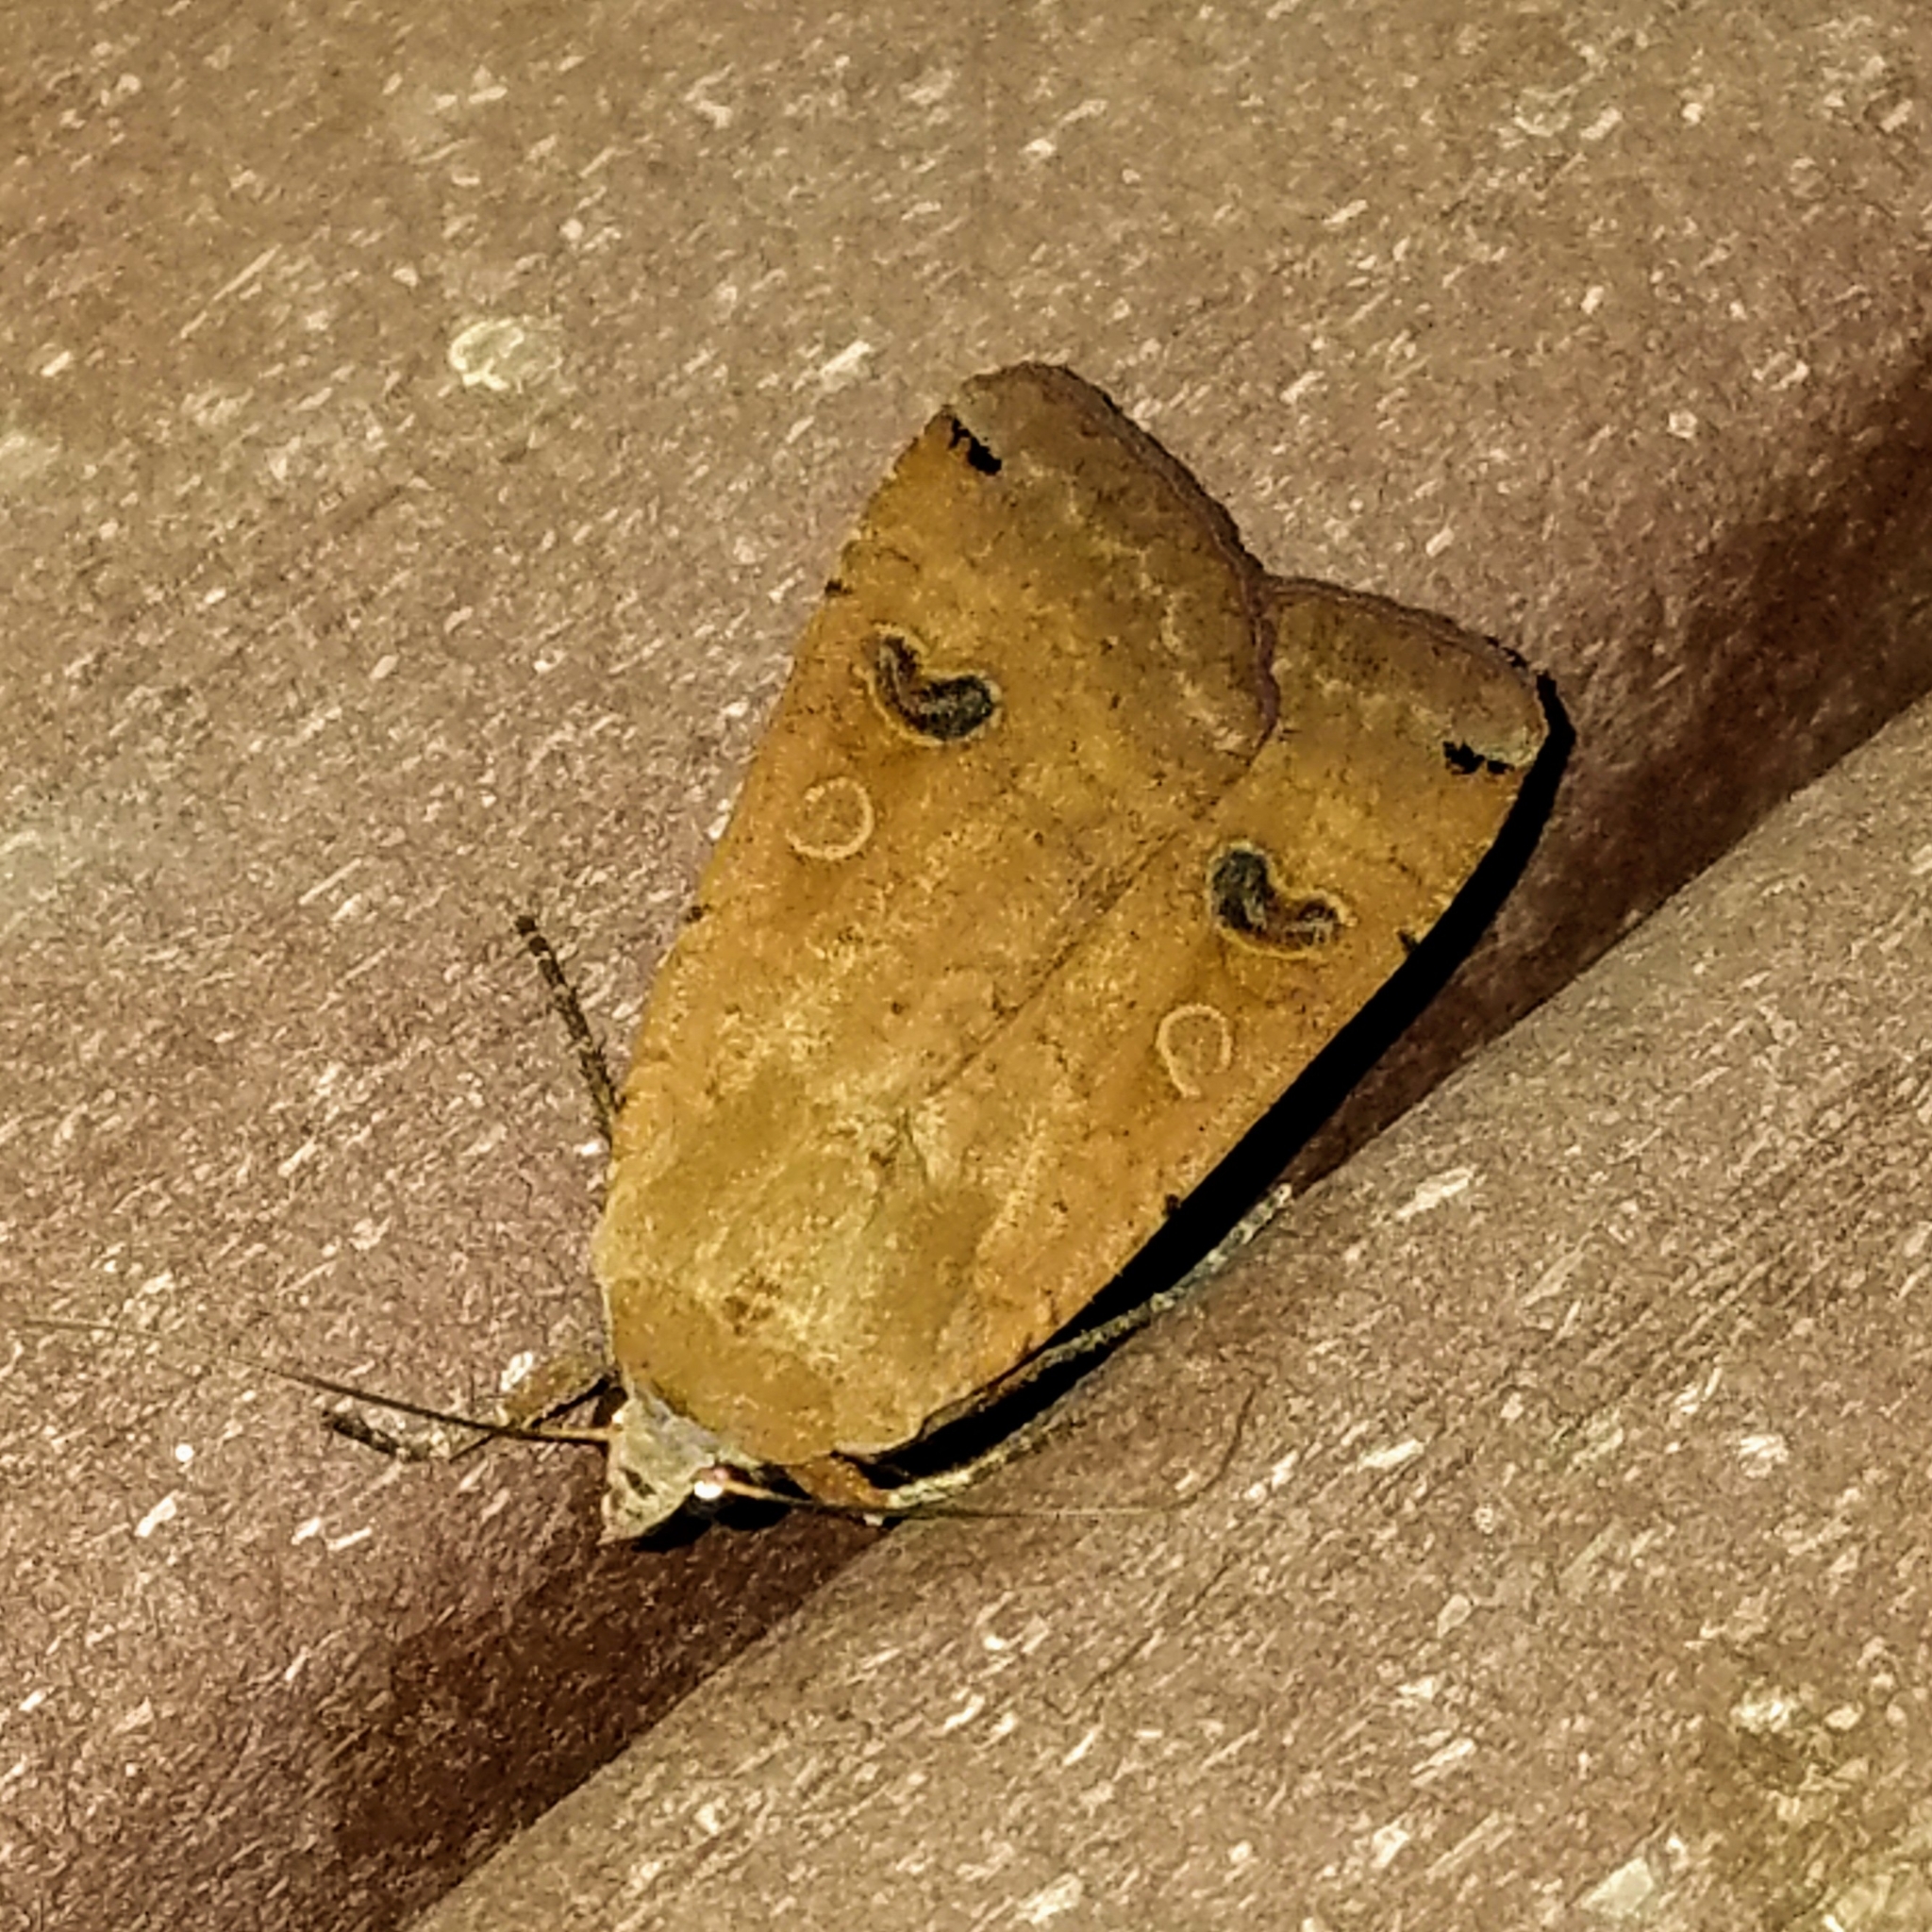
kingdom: Animalia
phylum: Arthropoda
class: Insecta
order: Lepidoptera
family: Noctuidae
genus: Noctua
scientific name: Noctua pronuba
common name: Large yellow underwing
